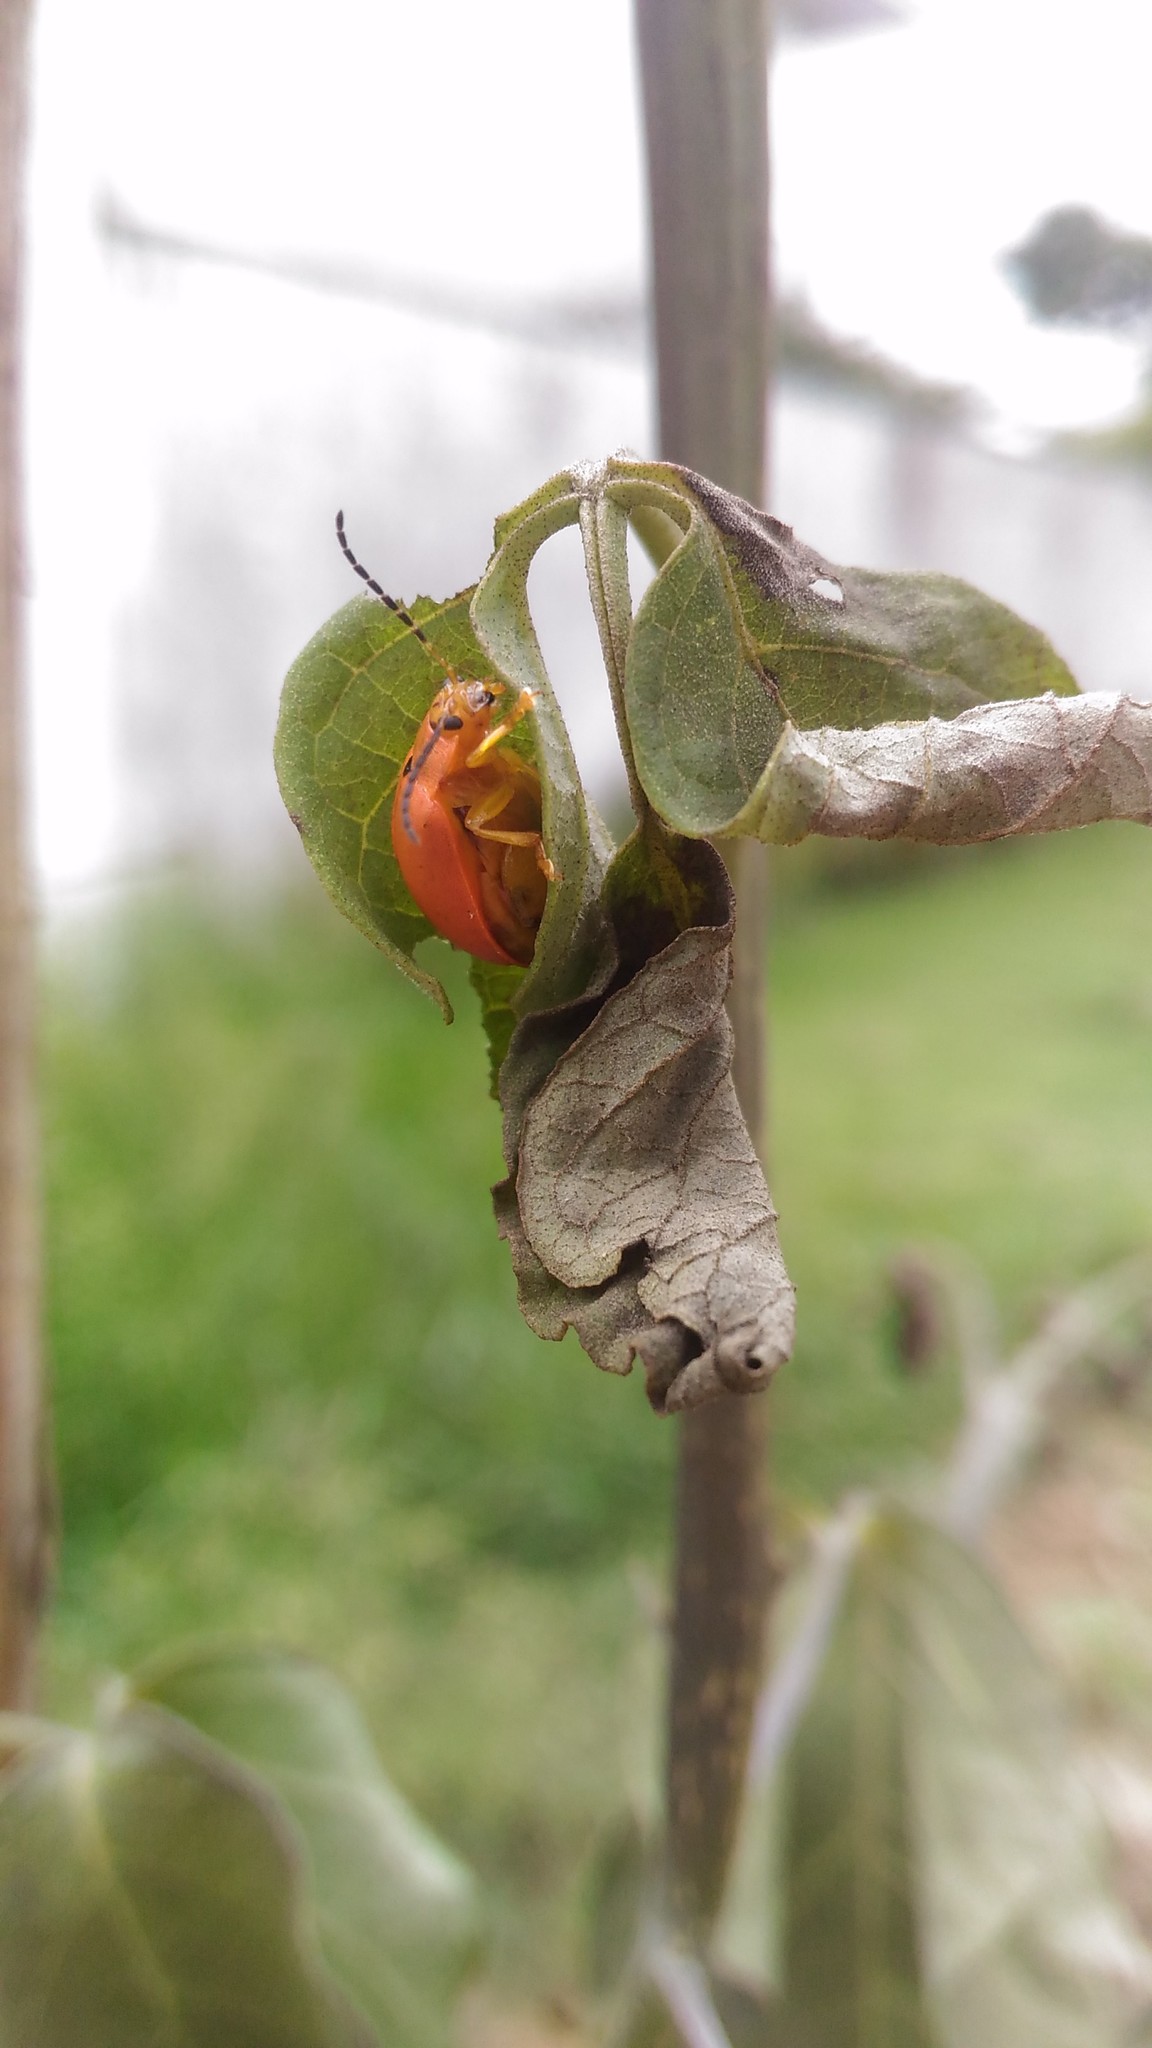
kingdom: Animalia
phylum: Arthropoda
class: Insecta
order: Coleoptera
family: Chrysomelidae
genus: Paranaita
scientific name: Paranaita
